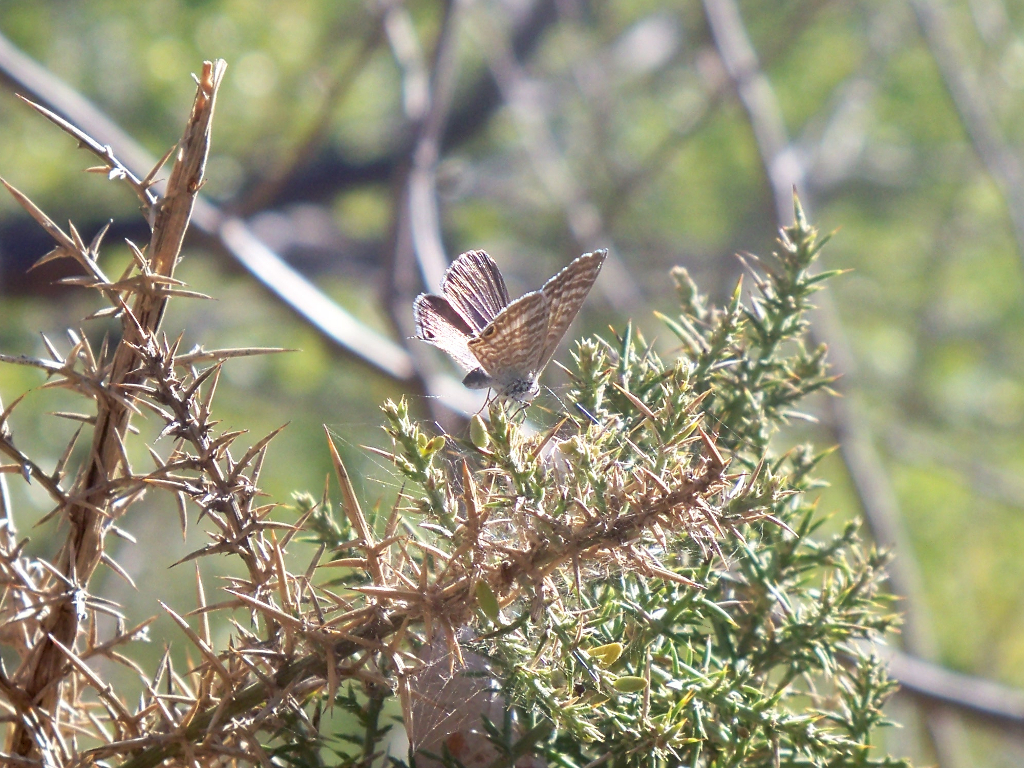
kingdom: Animalia
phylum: Arthropoda
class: Insecta
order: Lepidoptera
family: Lycaenidae
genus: Lampides
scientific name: Lampides boeticus
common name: Long-tailed blue
